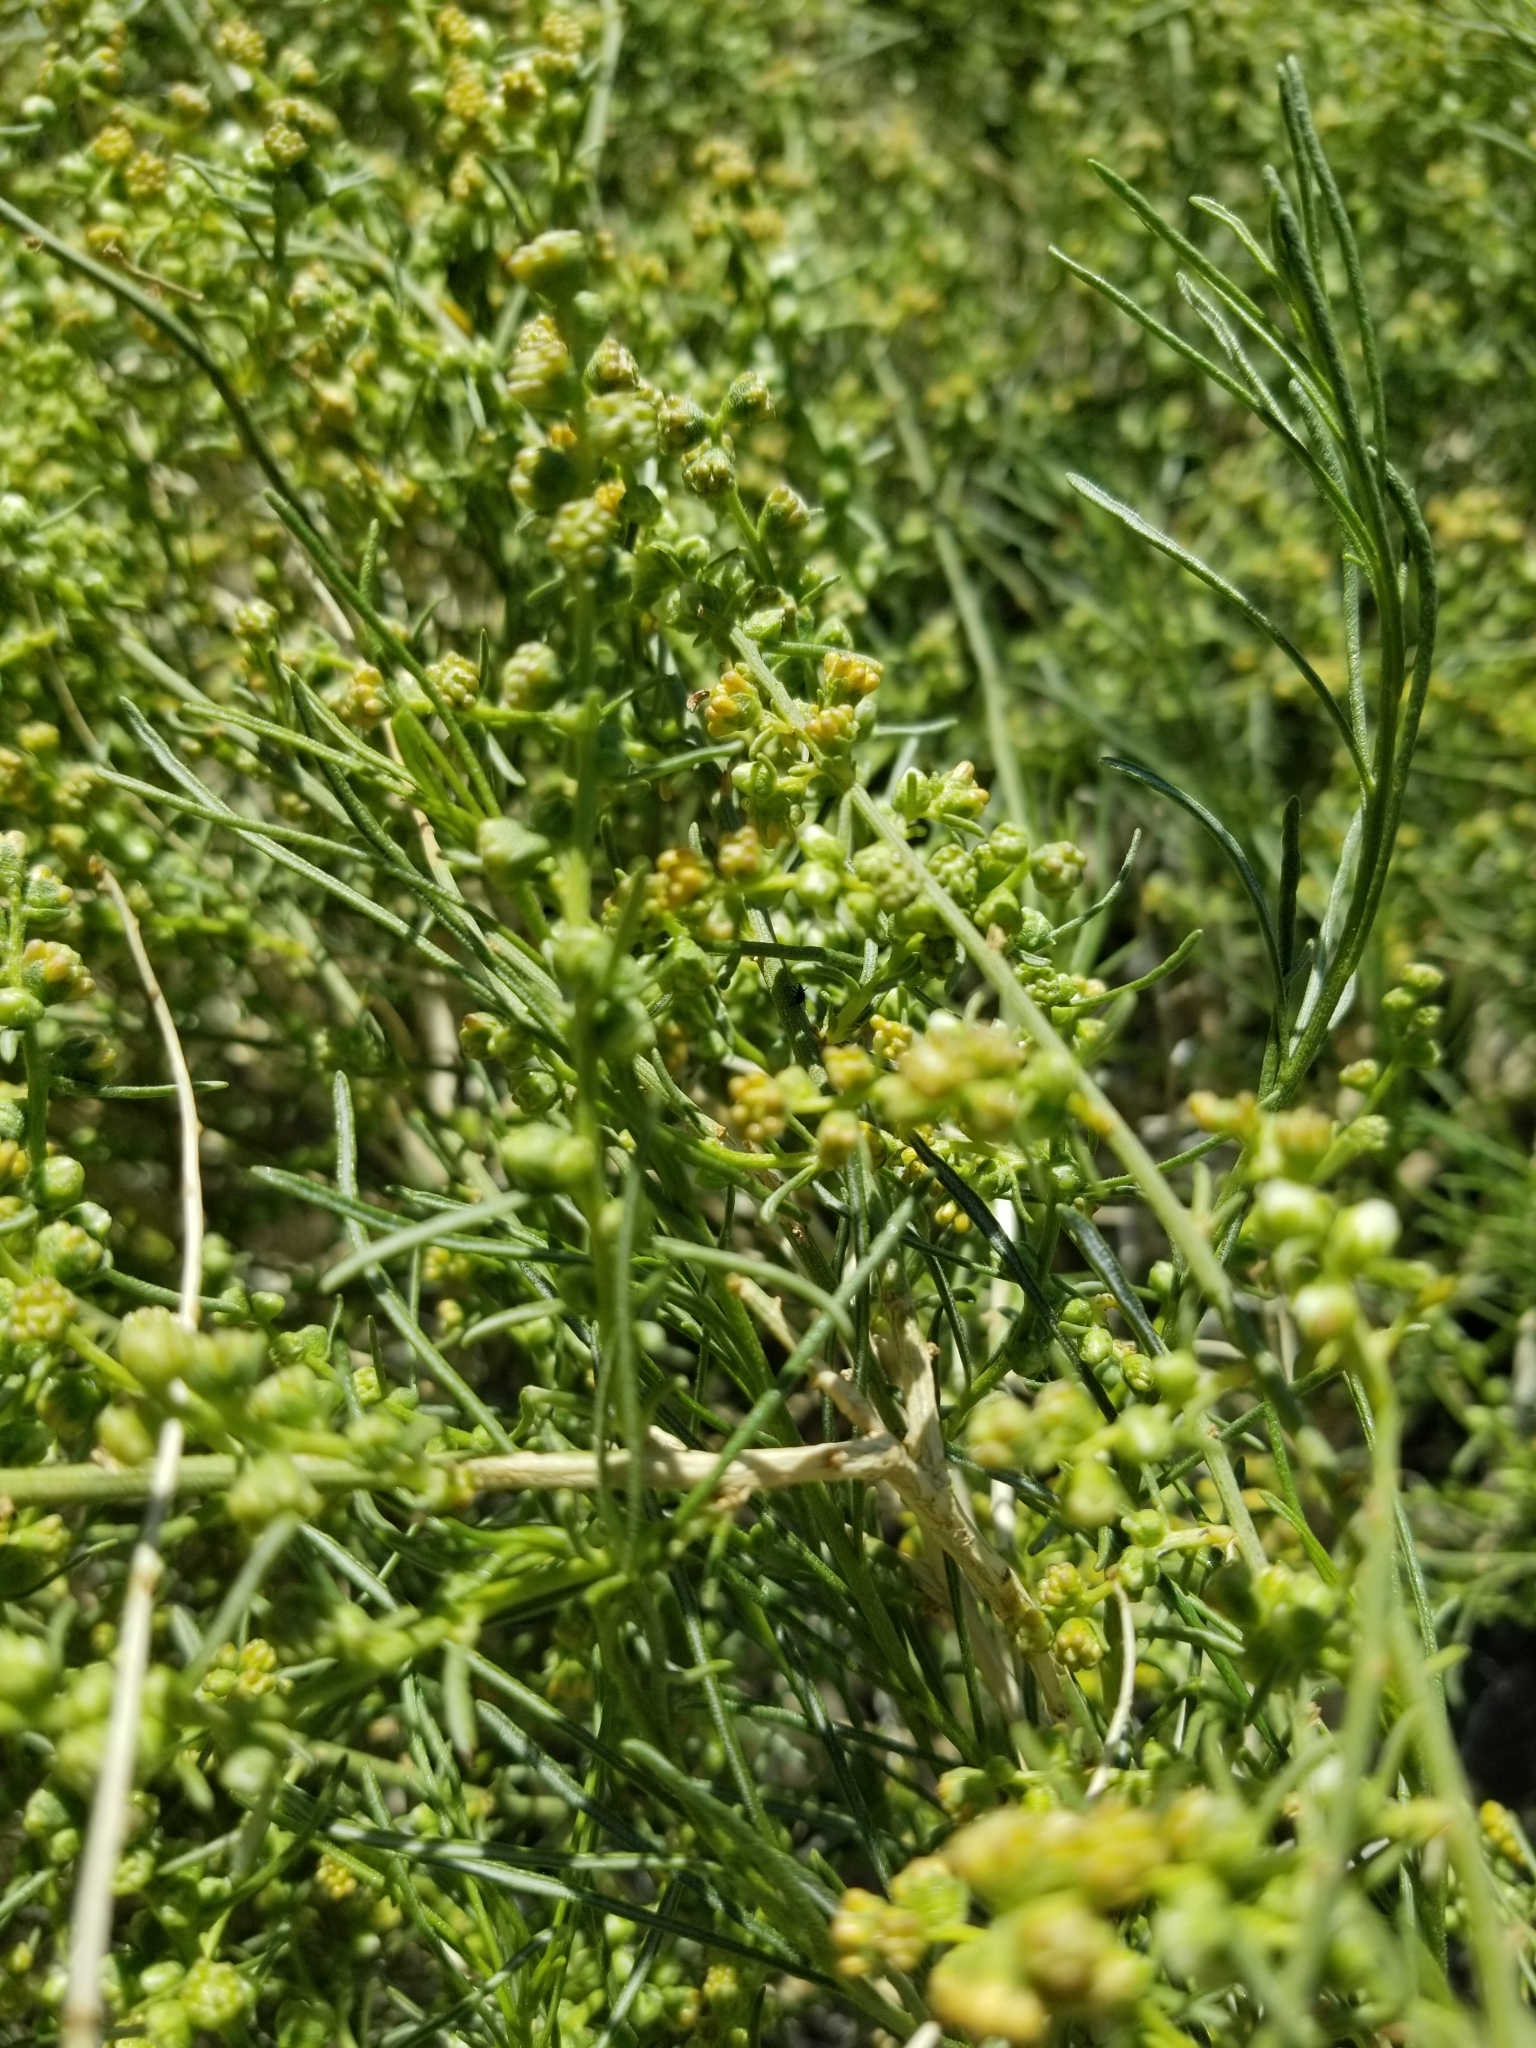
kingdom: Plantae
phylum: Tracheophyta
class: Magnoliopsida
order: Asterales
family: Asteraceae
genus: Ambrosia
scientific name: Ambrosia salsola
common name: Burrobrush
